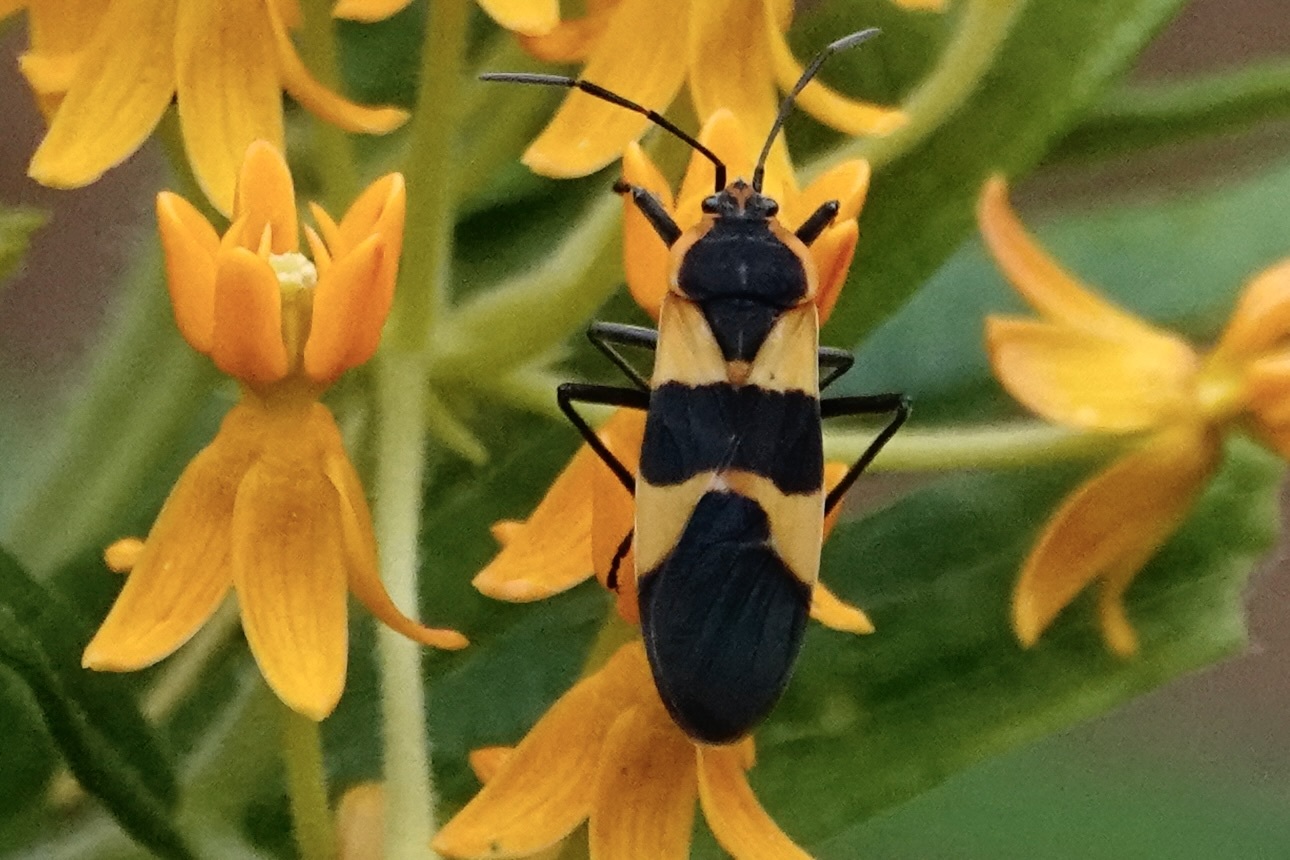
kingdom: Animalia
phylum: Arthropoda
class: Insecta
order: Hemiptera
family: Lygaeidae
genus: Oncopeltus
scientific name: Oncopeltus fasciatus
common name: Large milkweed bug
